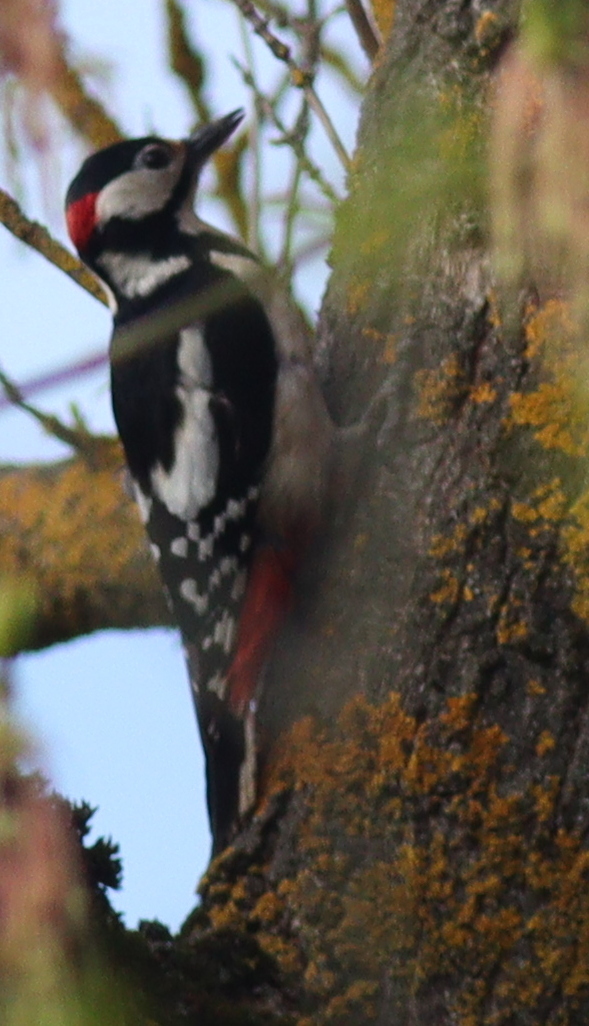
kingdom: Animalia
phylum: Chordata
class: Aves
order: Piciformes
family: Picidae
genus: Dendrocopos
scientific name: Dendrocopos major
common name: Great spotted woodpecker
